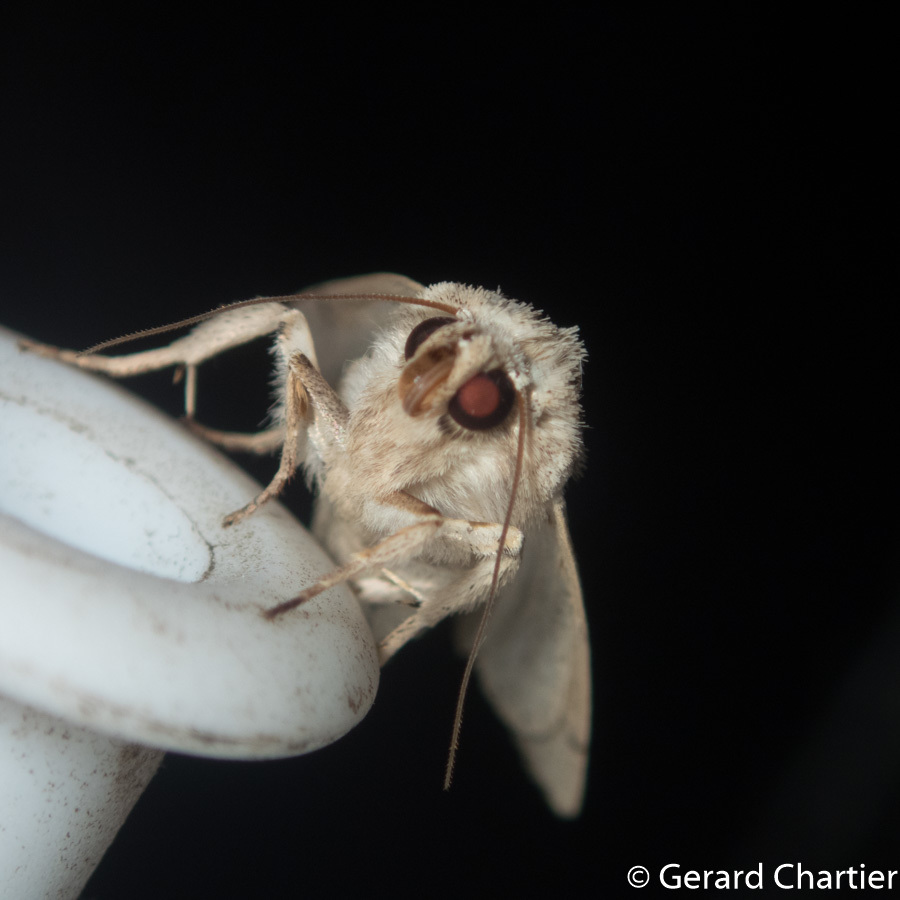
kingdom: Animalia
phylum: Arthropoda
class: Insecta
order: Lepidoptera
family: Noctuidae
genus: Leucania
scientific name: Leucania yu
